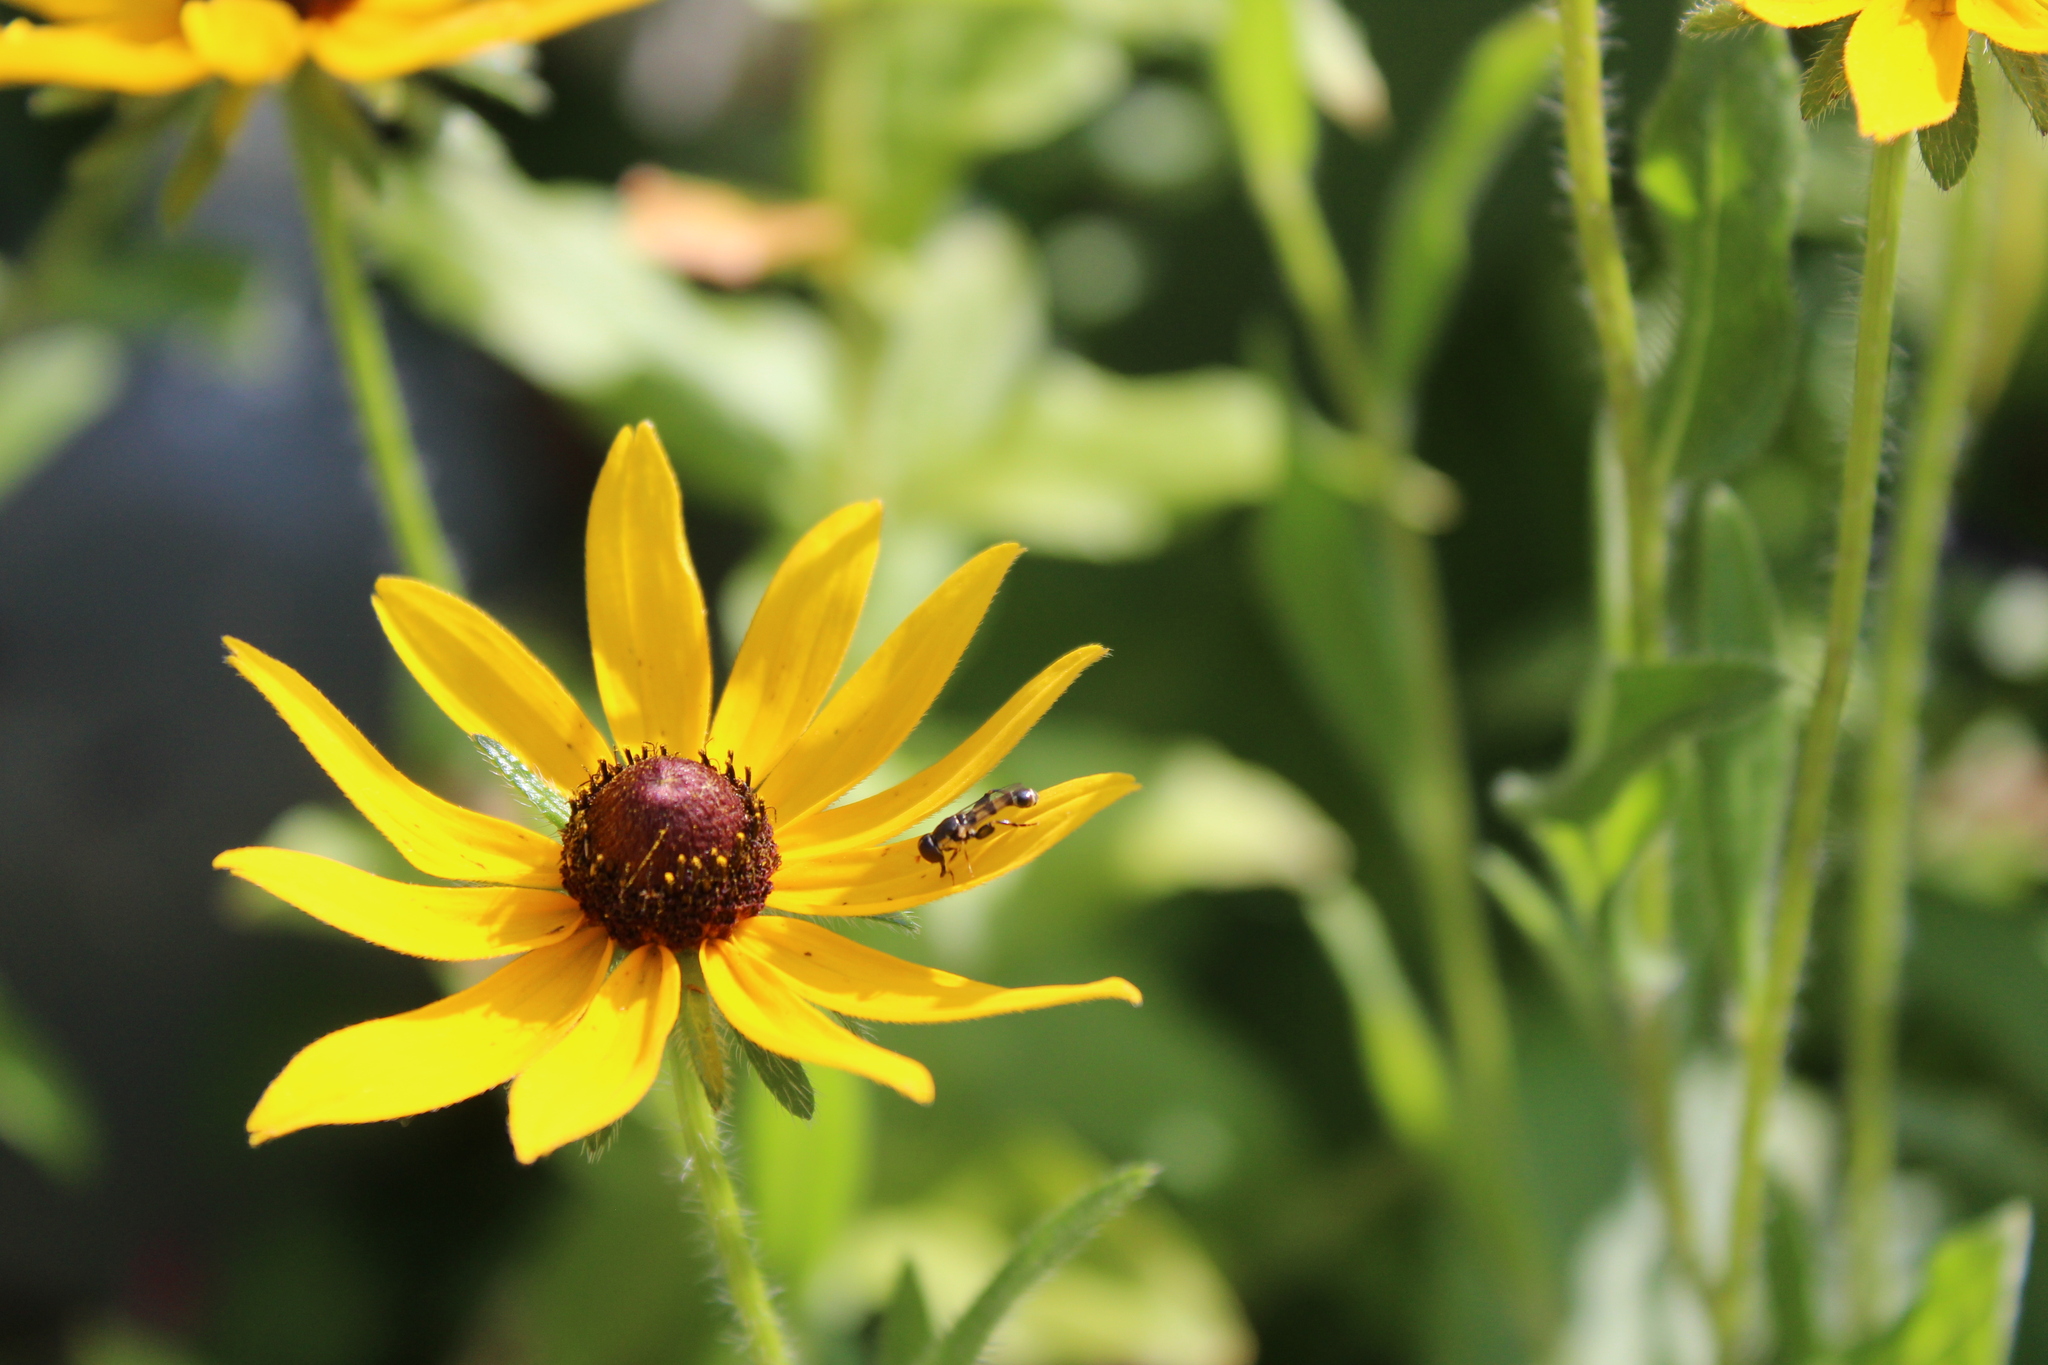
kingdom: Animalia
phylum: Arthropoda
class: Insecta
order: Diptera
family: Syrphidae
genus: Syritta
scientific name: Syritta pipiens
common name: Hover fly
